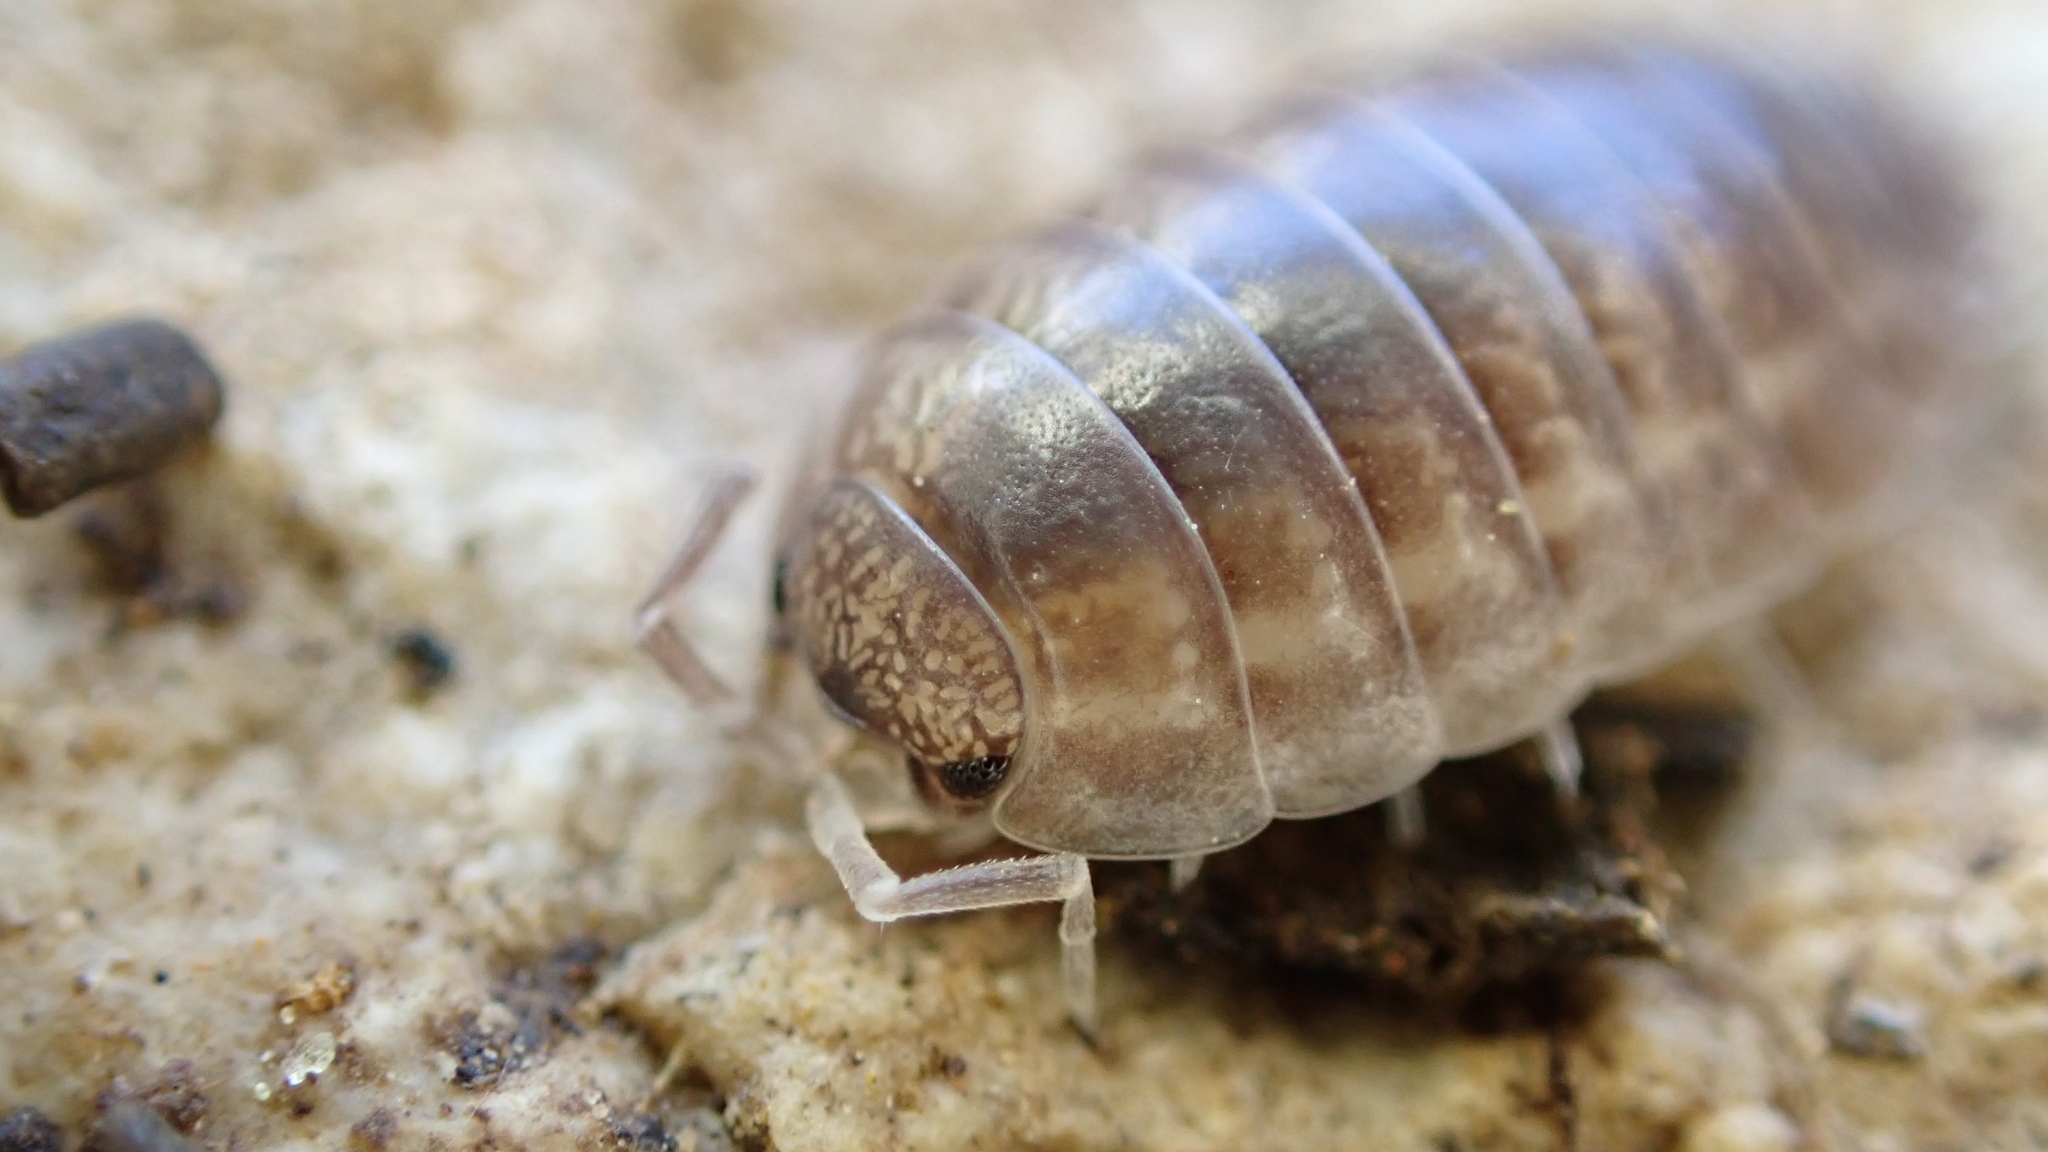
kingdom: Animalia
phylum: Arthropoda
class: Malacostraca
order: Isopoda
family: Porcellionidae
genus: Porcellio
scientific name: Porcellio laevis
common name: Swift woodlouse
